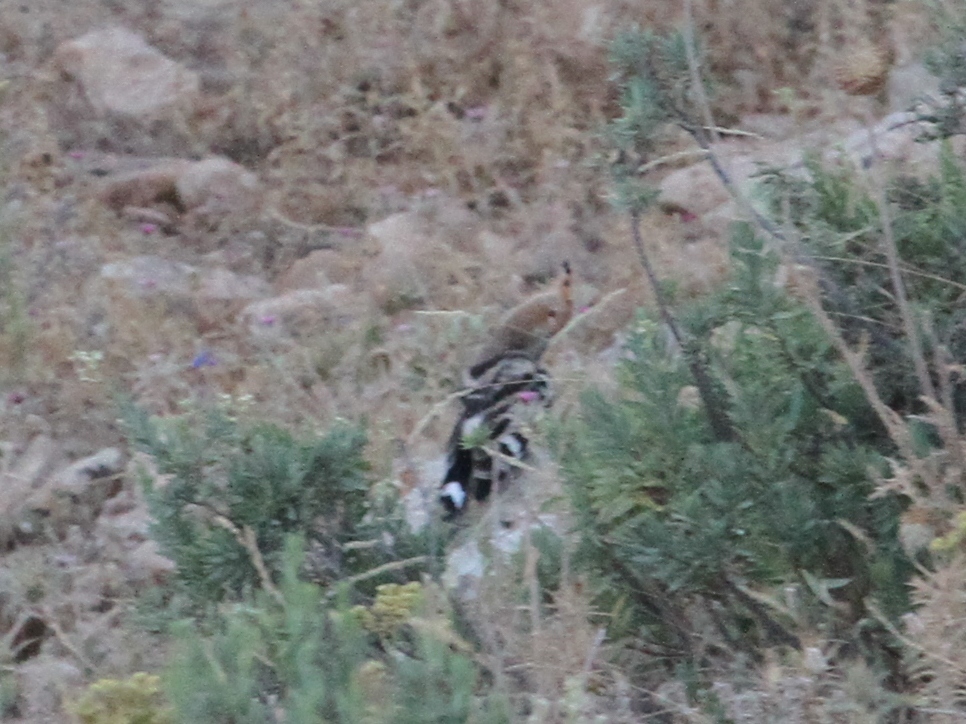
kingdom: Animalia
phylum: Chordata
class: Aves
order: Bucerotiformes
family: Upupidae
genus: Upupa
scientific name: Upupa epops
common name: Eurasian hoopoe
